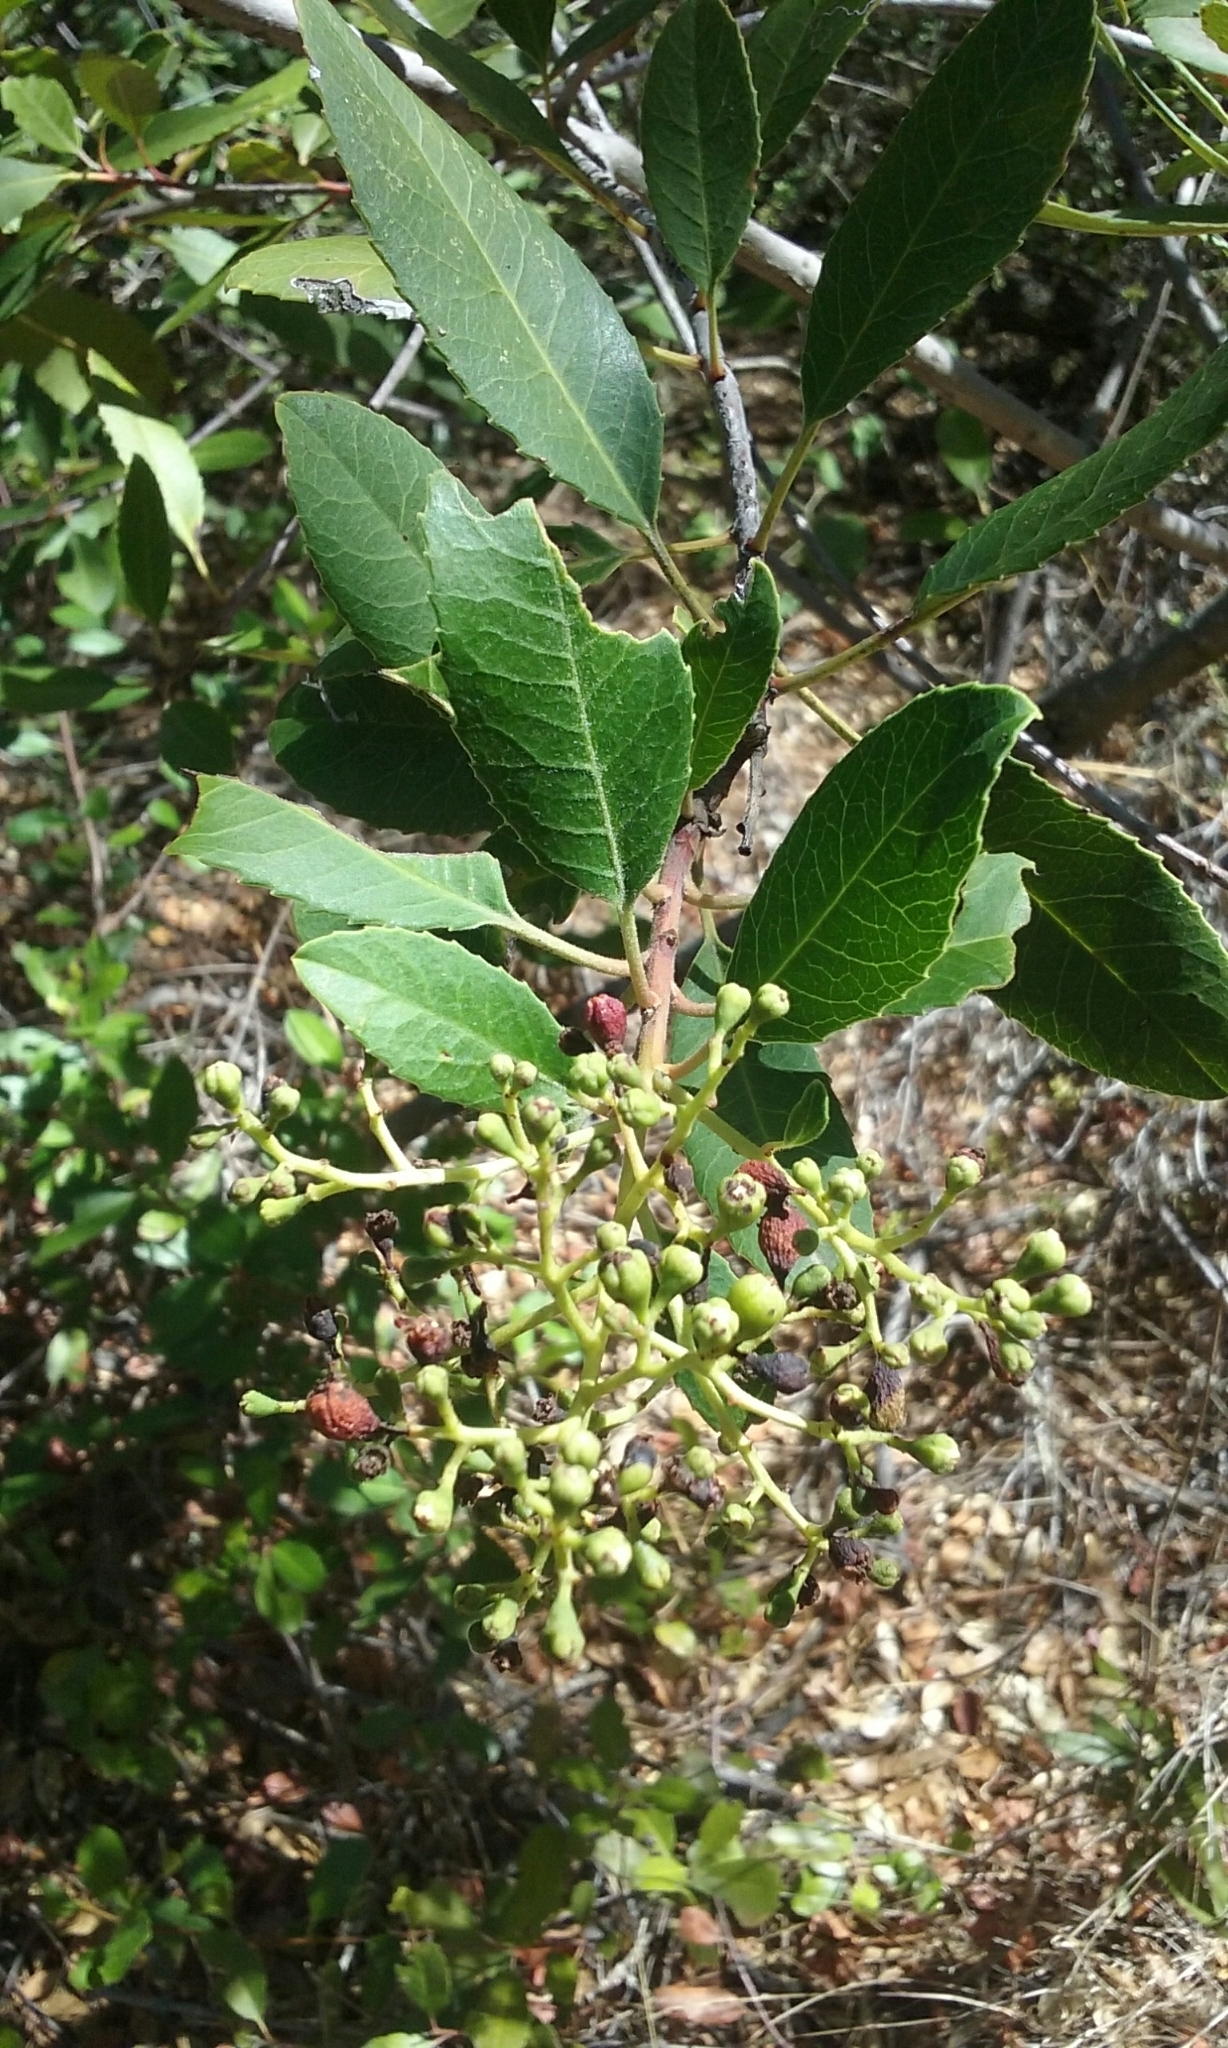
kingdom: Plantae
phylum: Tracheophyta
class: Magnoliopsida
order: Rosales
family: Rosaceae
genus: Heteromeles
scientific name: Heteromeles arbutifolia
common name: California-holly
